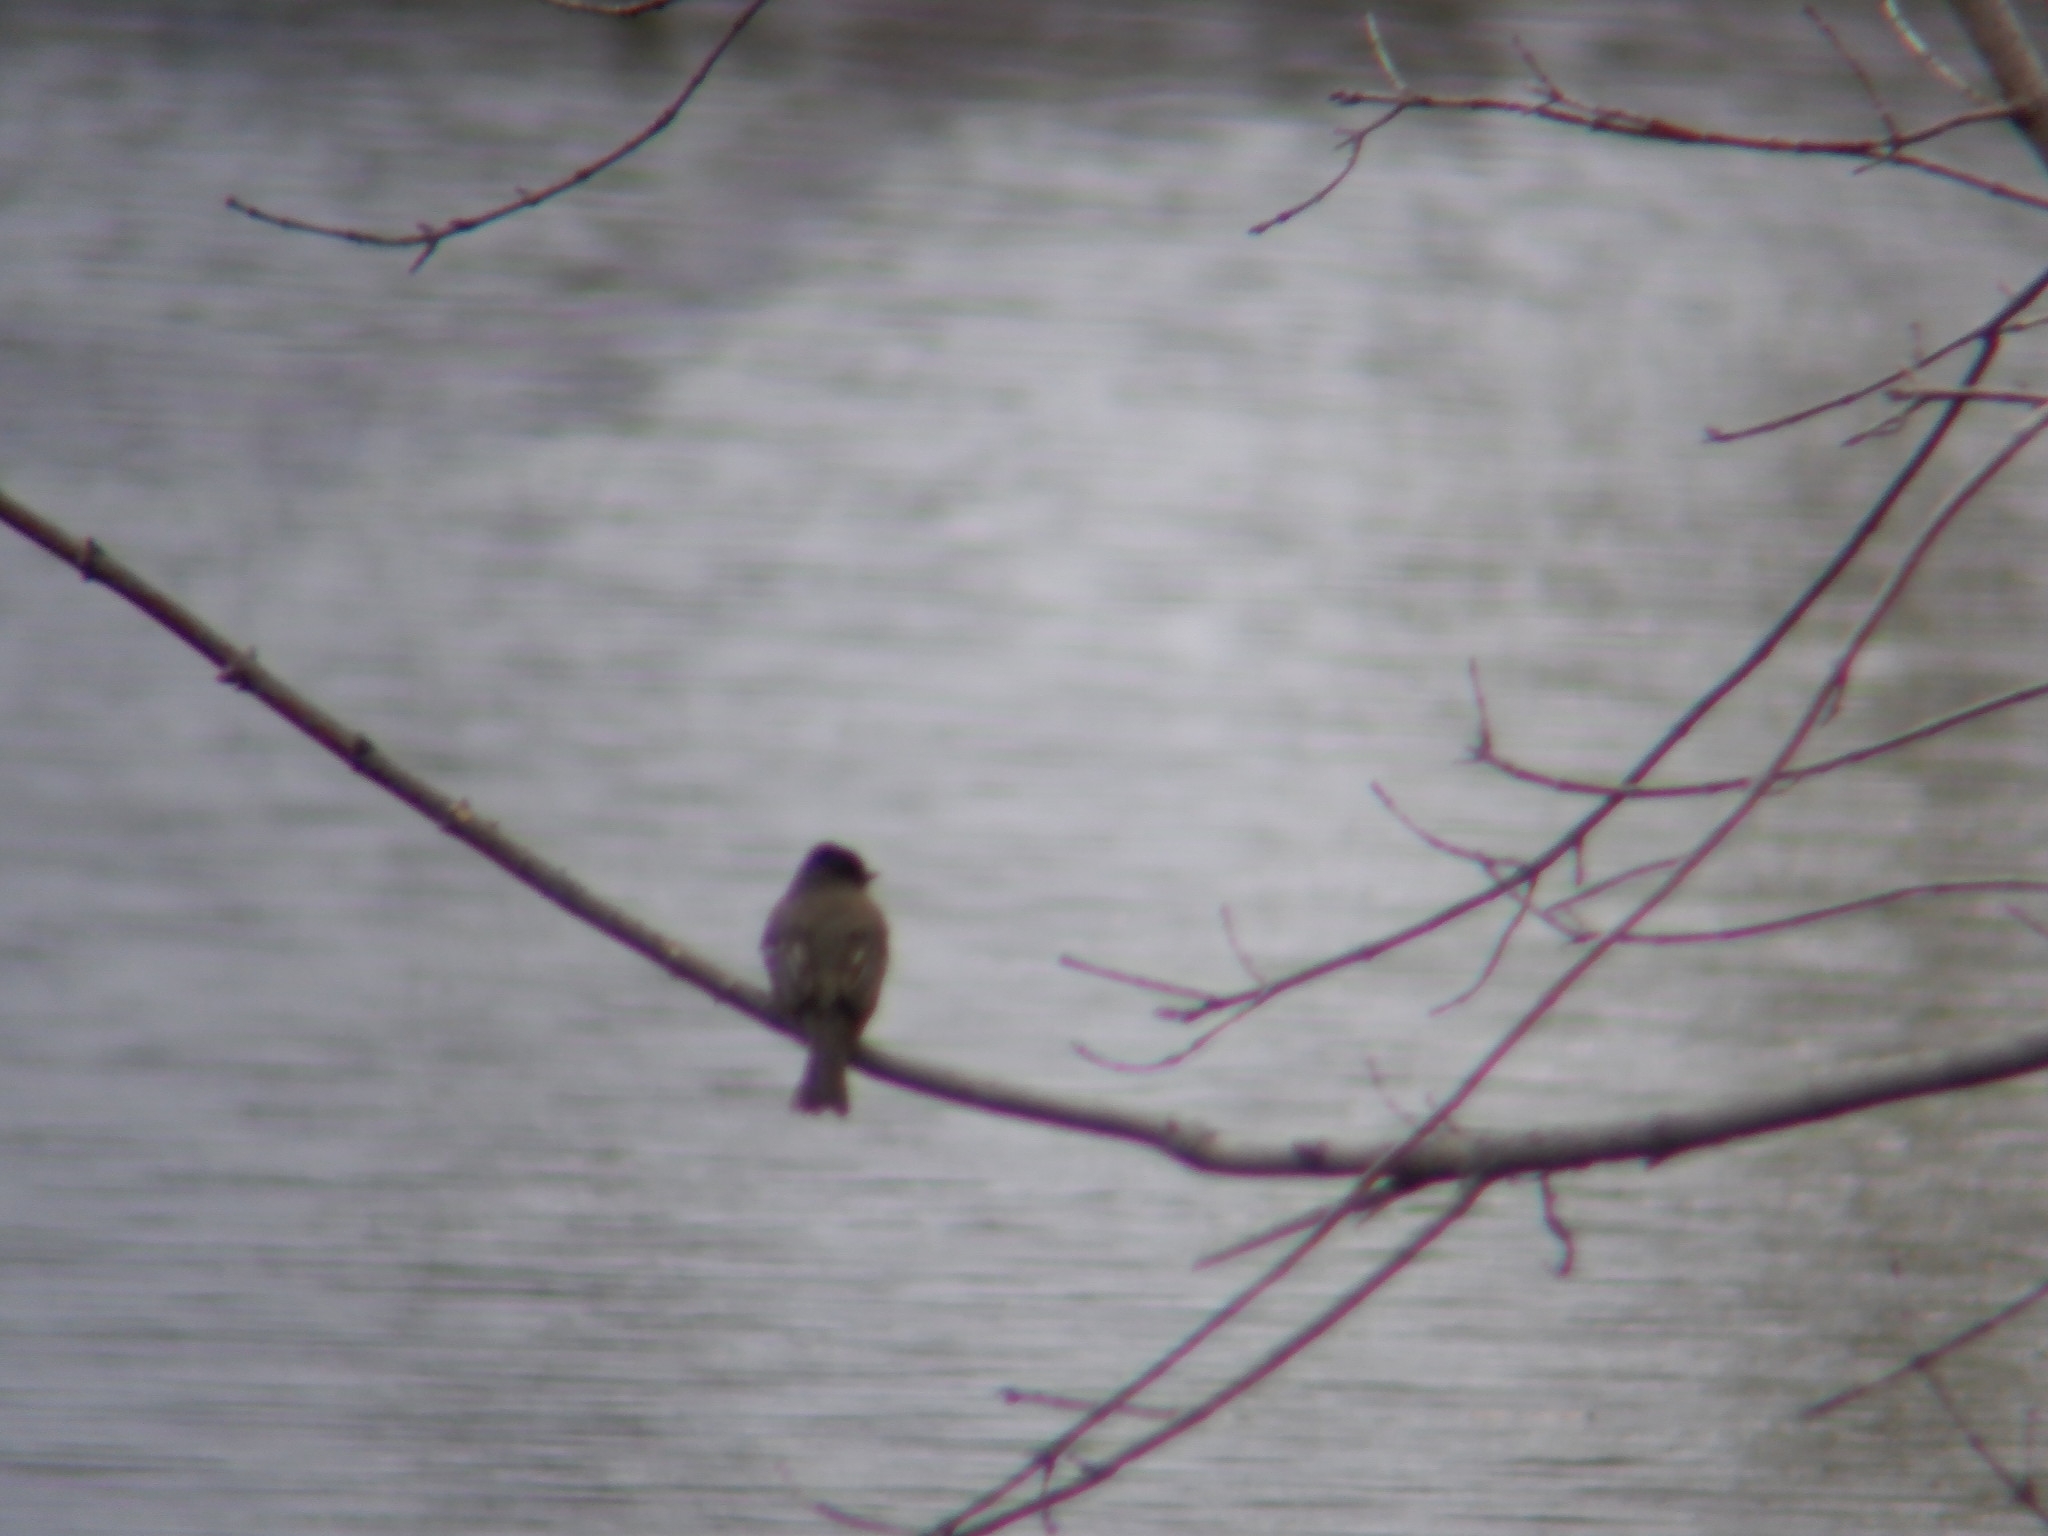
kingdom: Animalia
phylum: Chordata
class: Aves
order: Passeriformes
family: Tyrannidae
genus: Sayornis
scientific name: Sayornis phoebe
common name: Eastern phoebe
